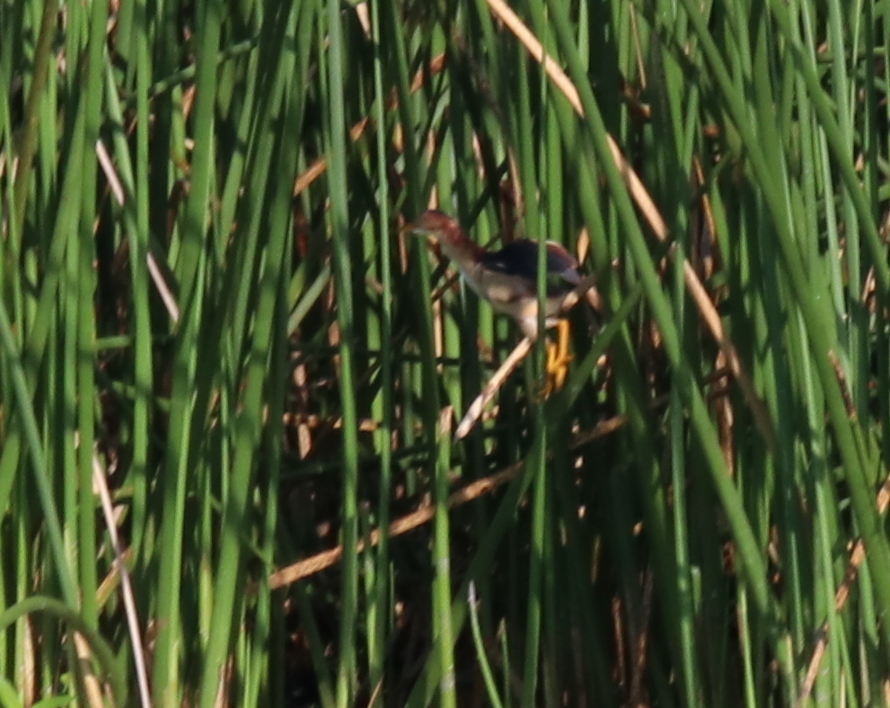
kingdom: Animalia
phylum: Chordata
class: Aves
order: Pelecaniformes
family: Ardeidae
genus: Ixobrychus
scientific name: Ixobrychus exilis
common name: Least bittern
